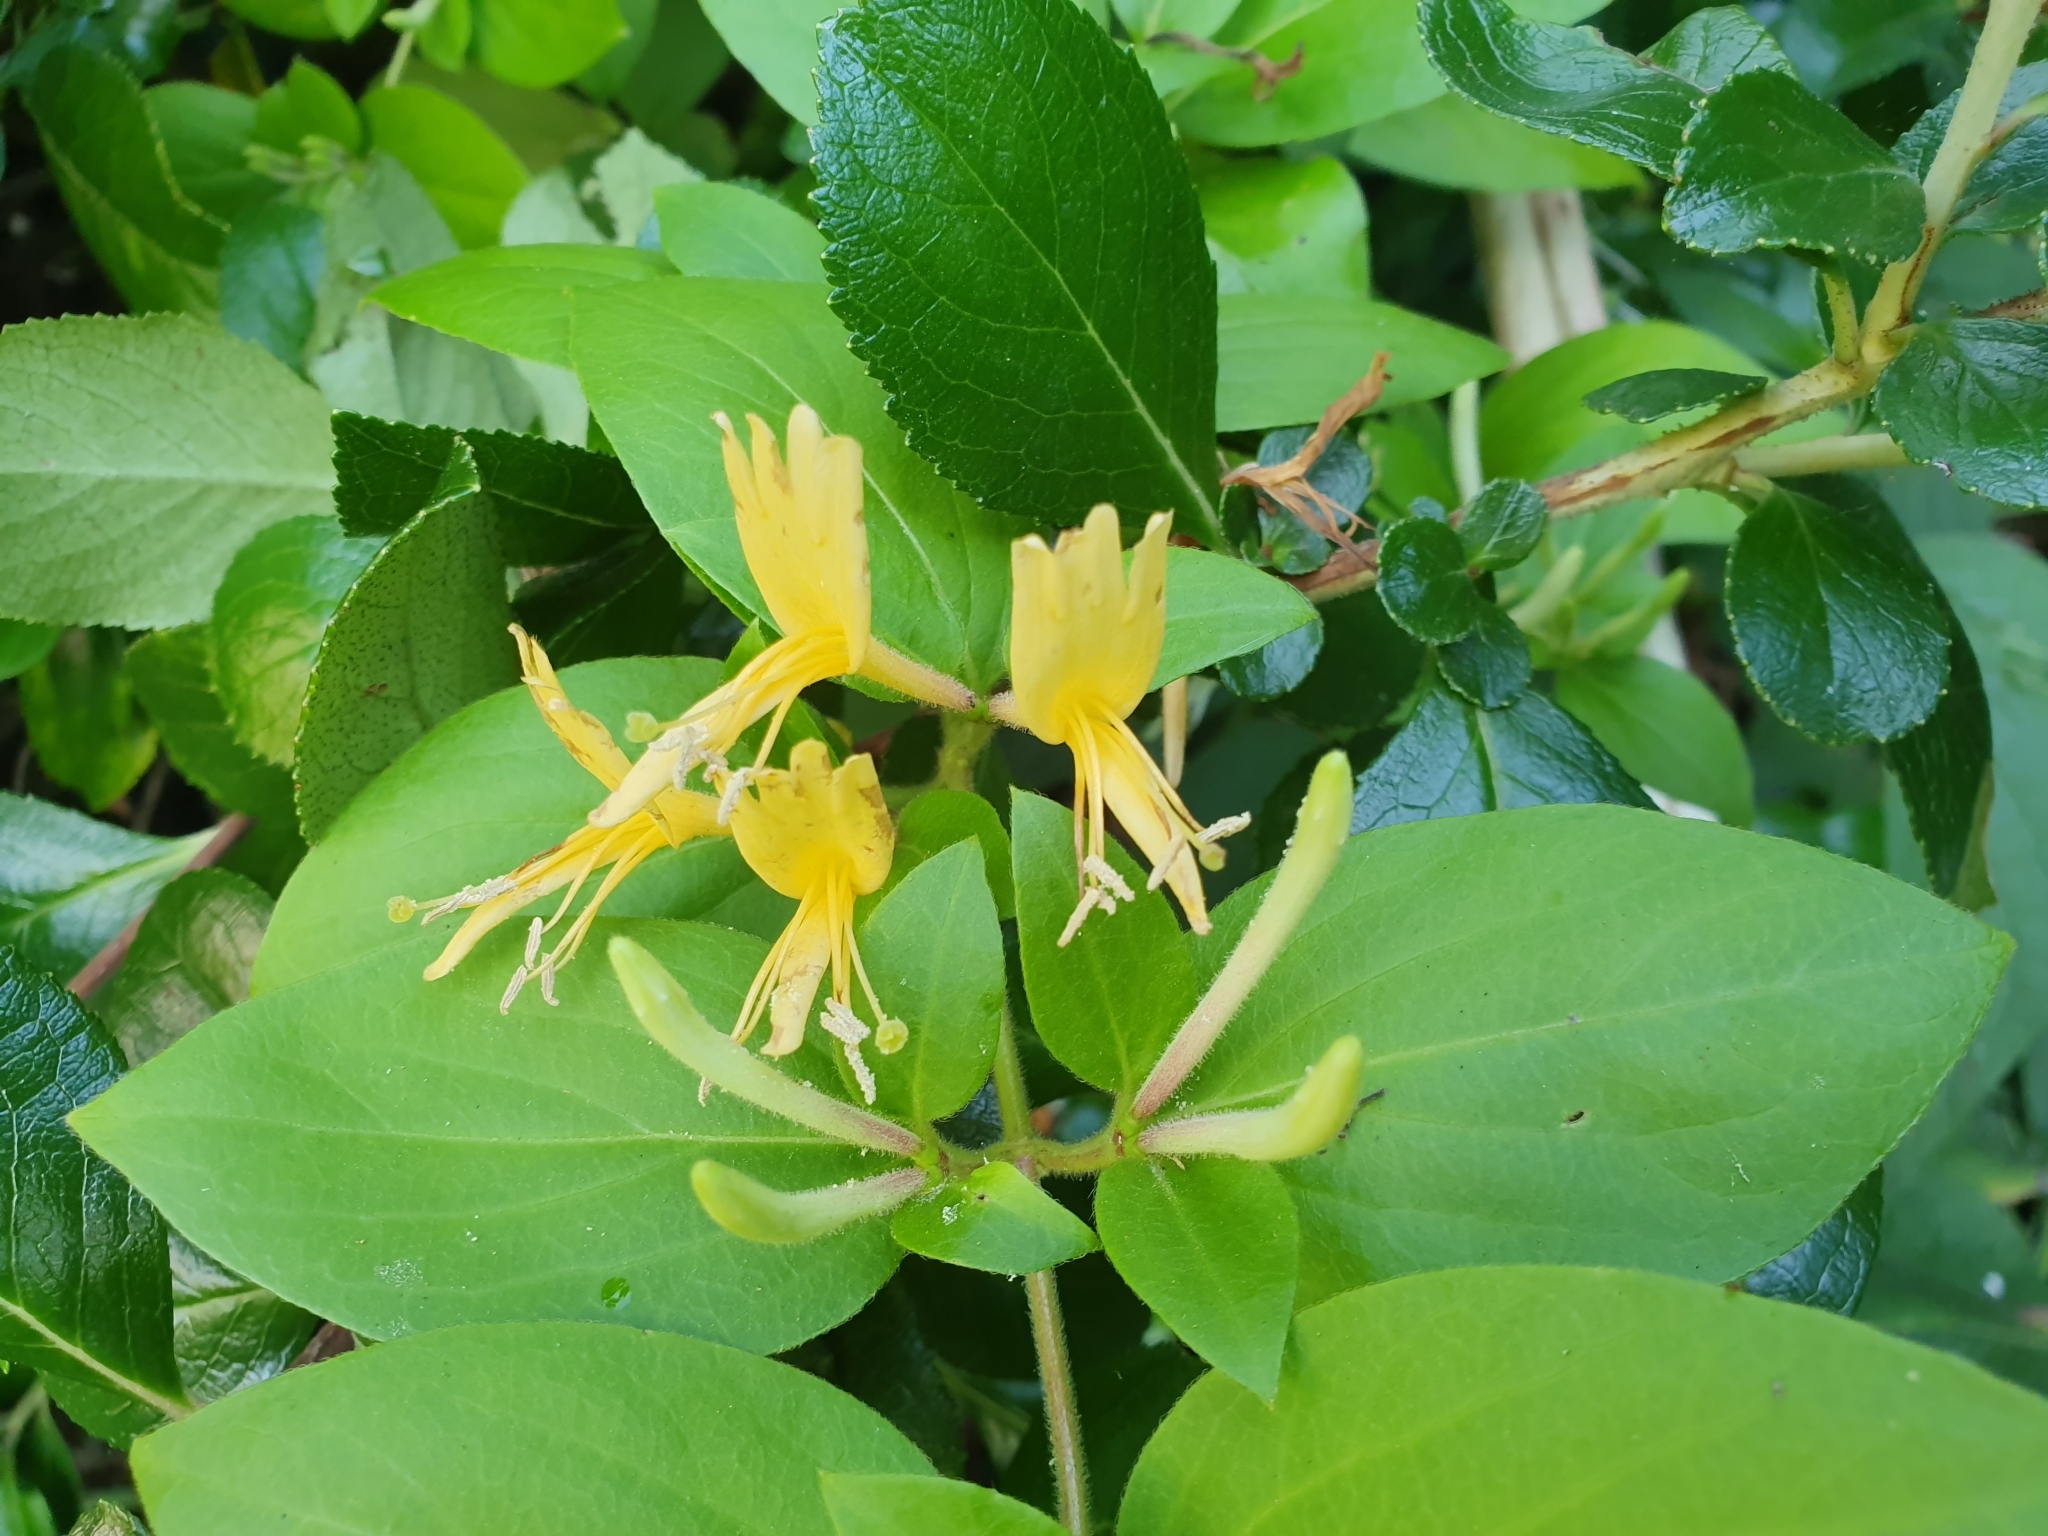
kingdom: Plantae
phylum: Tracheophyta
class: Magnoliopsida
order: Dipsacales
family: Caprifoliaceae
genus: Lonicera
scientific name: Lonicera japonica
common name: Japanese honeysuckle
